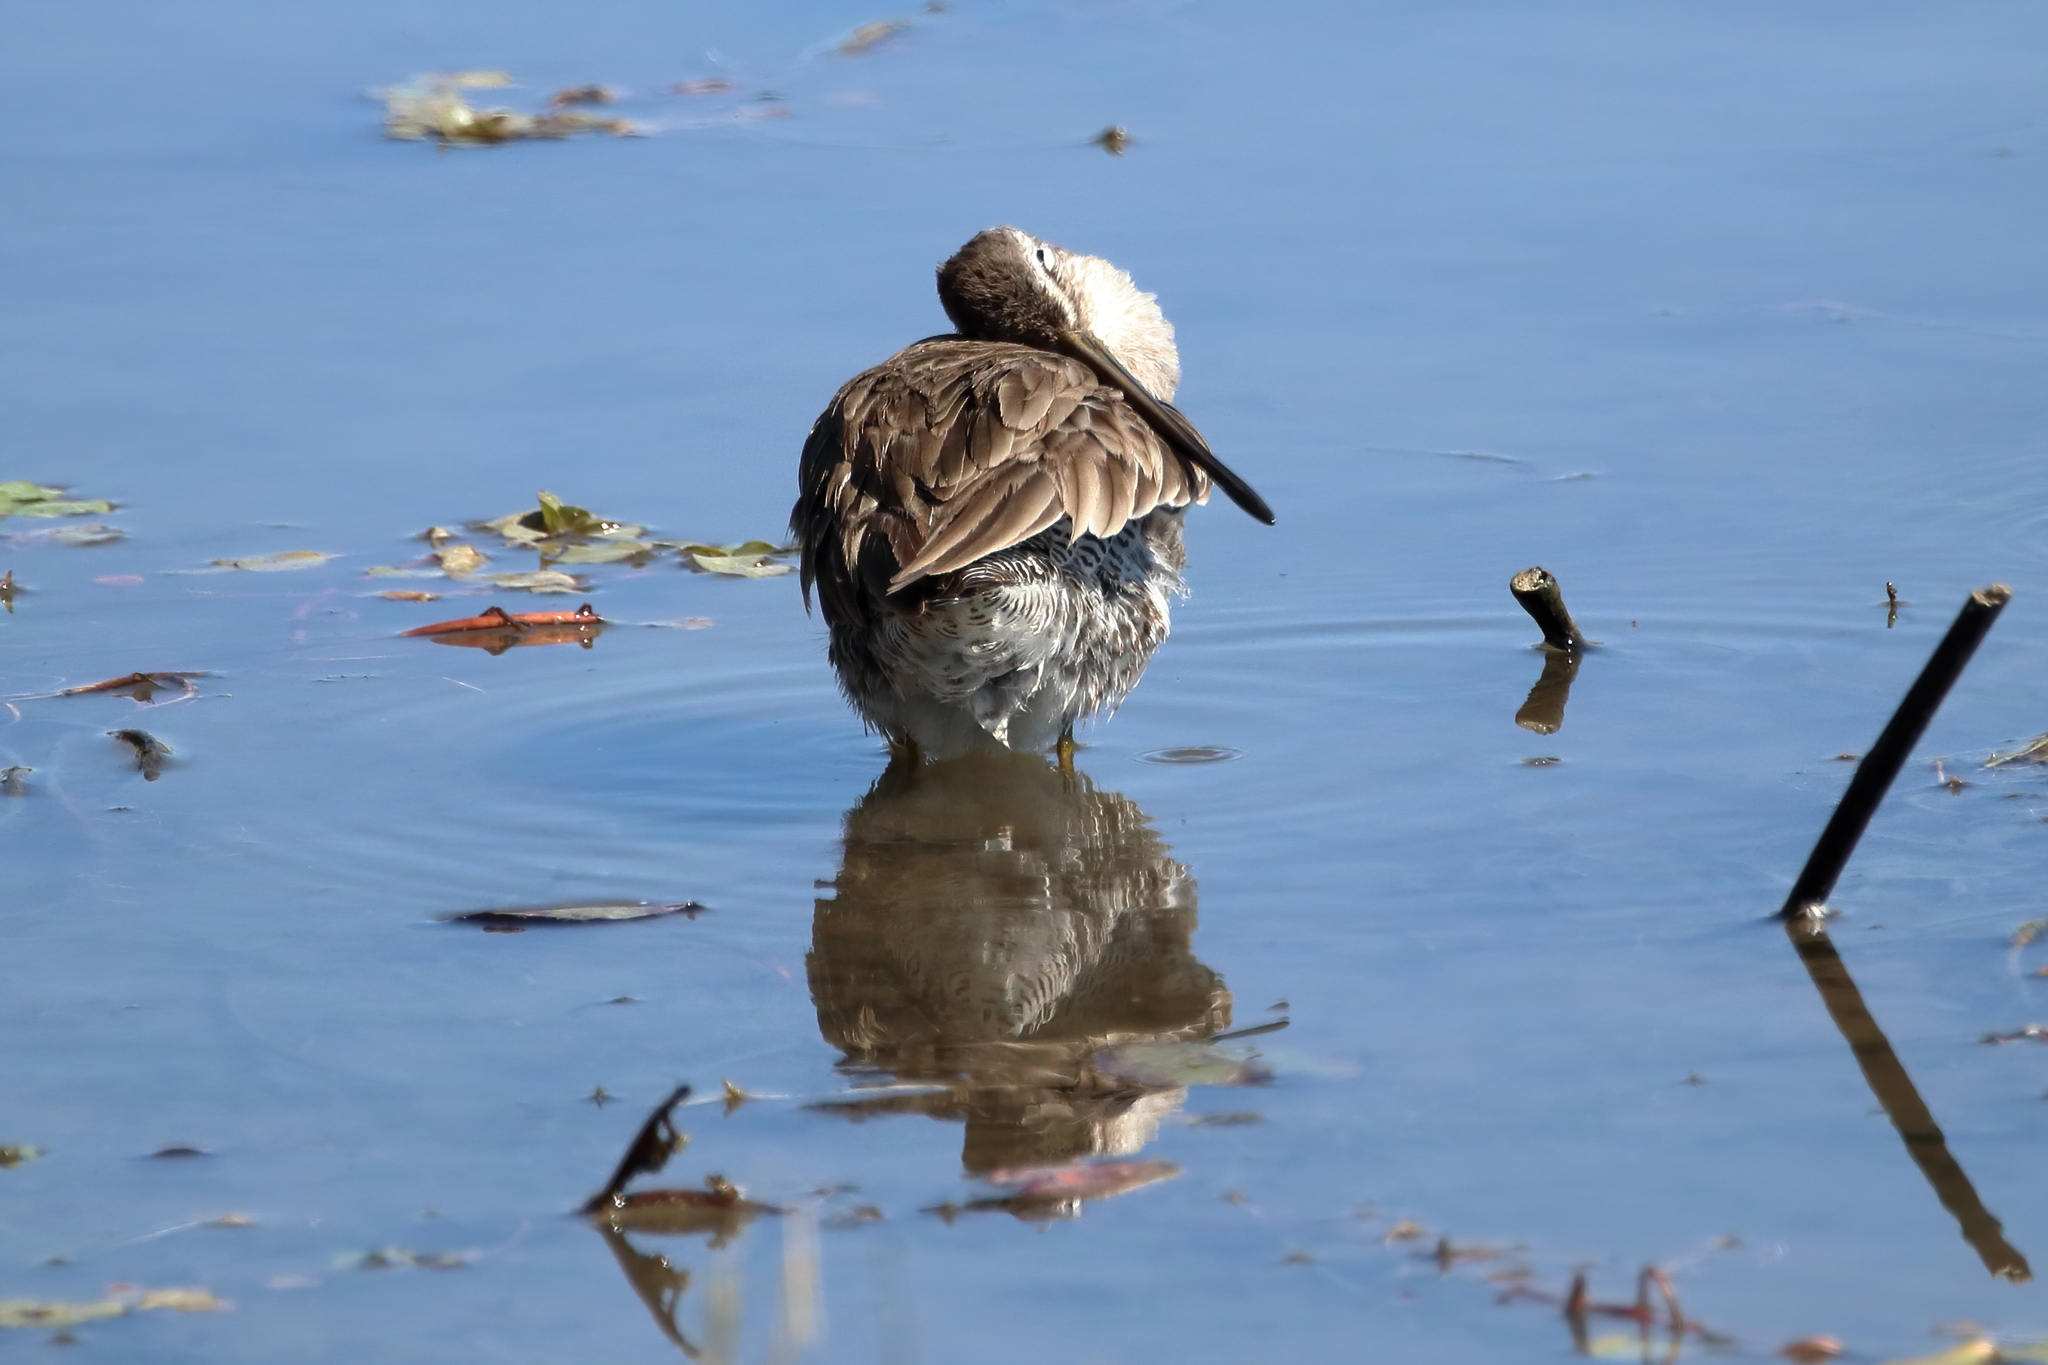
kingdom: Animalia
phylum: Chordata
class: Aves
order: Charadriiformes
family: Scolopacidae
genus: Limnodromus
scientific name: Limnodromus
